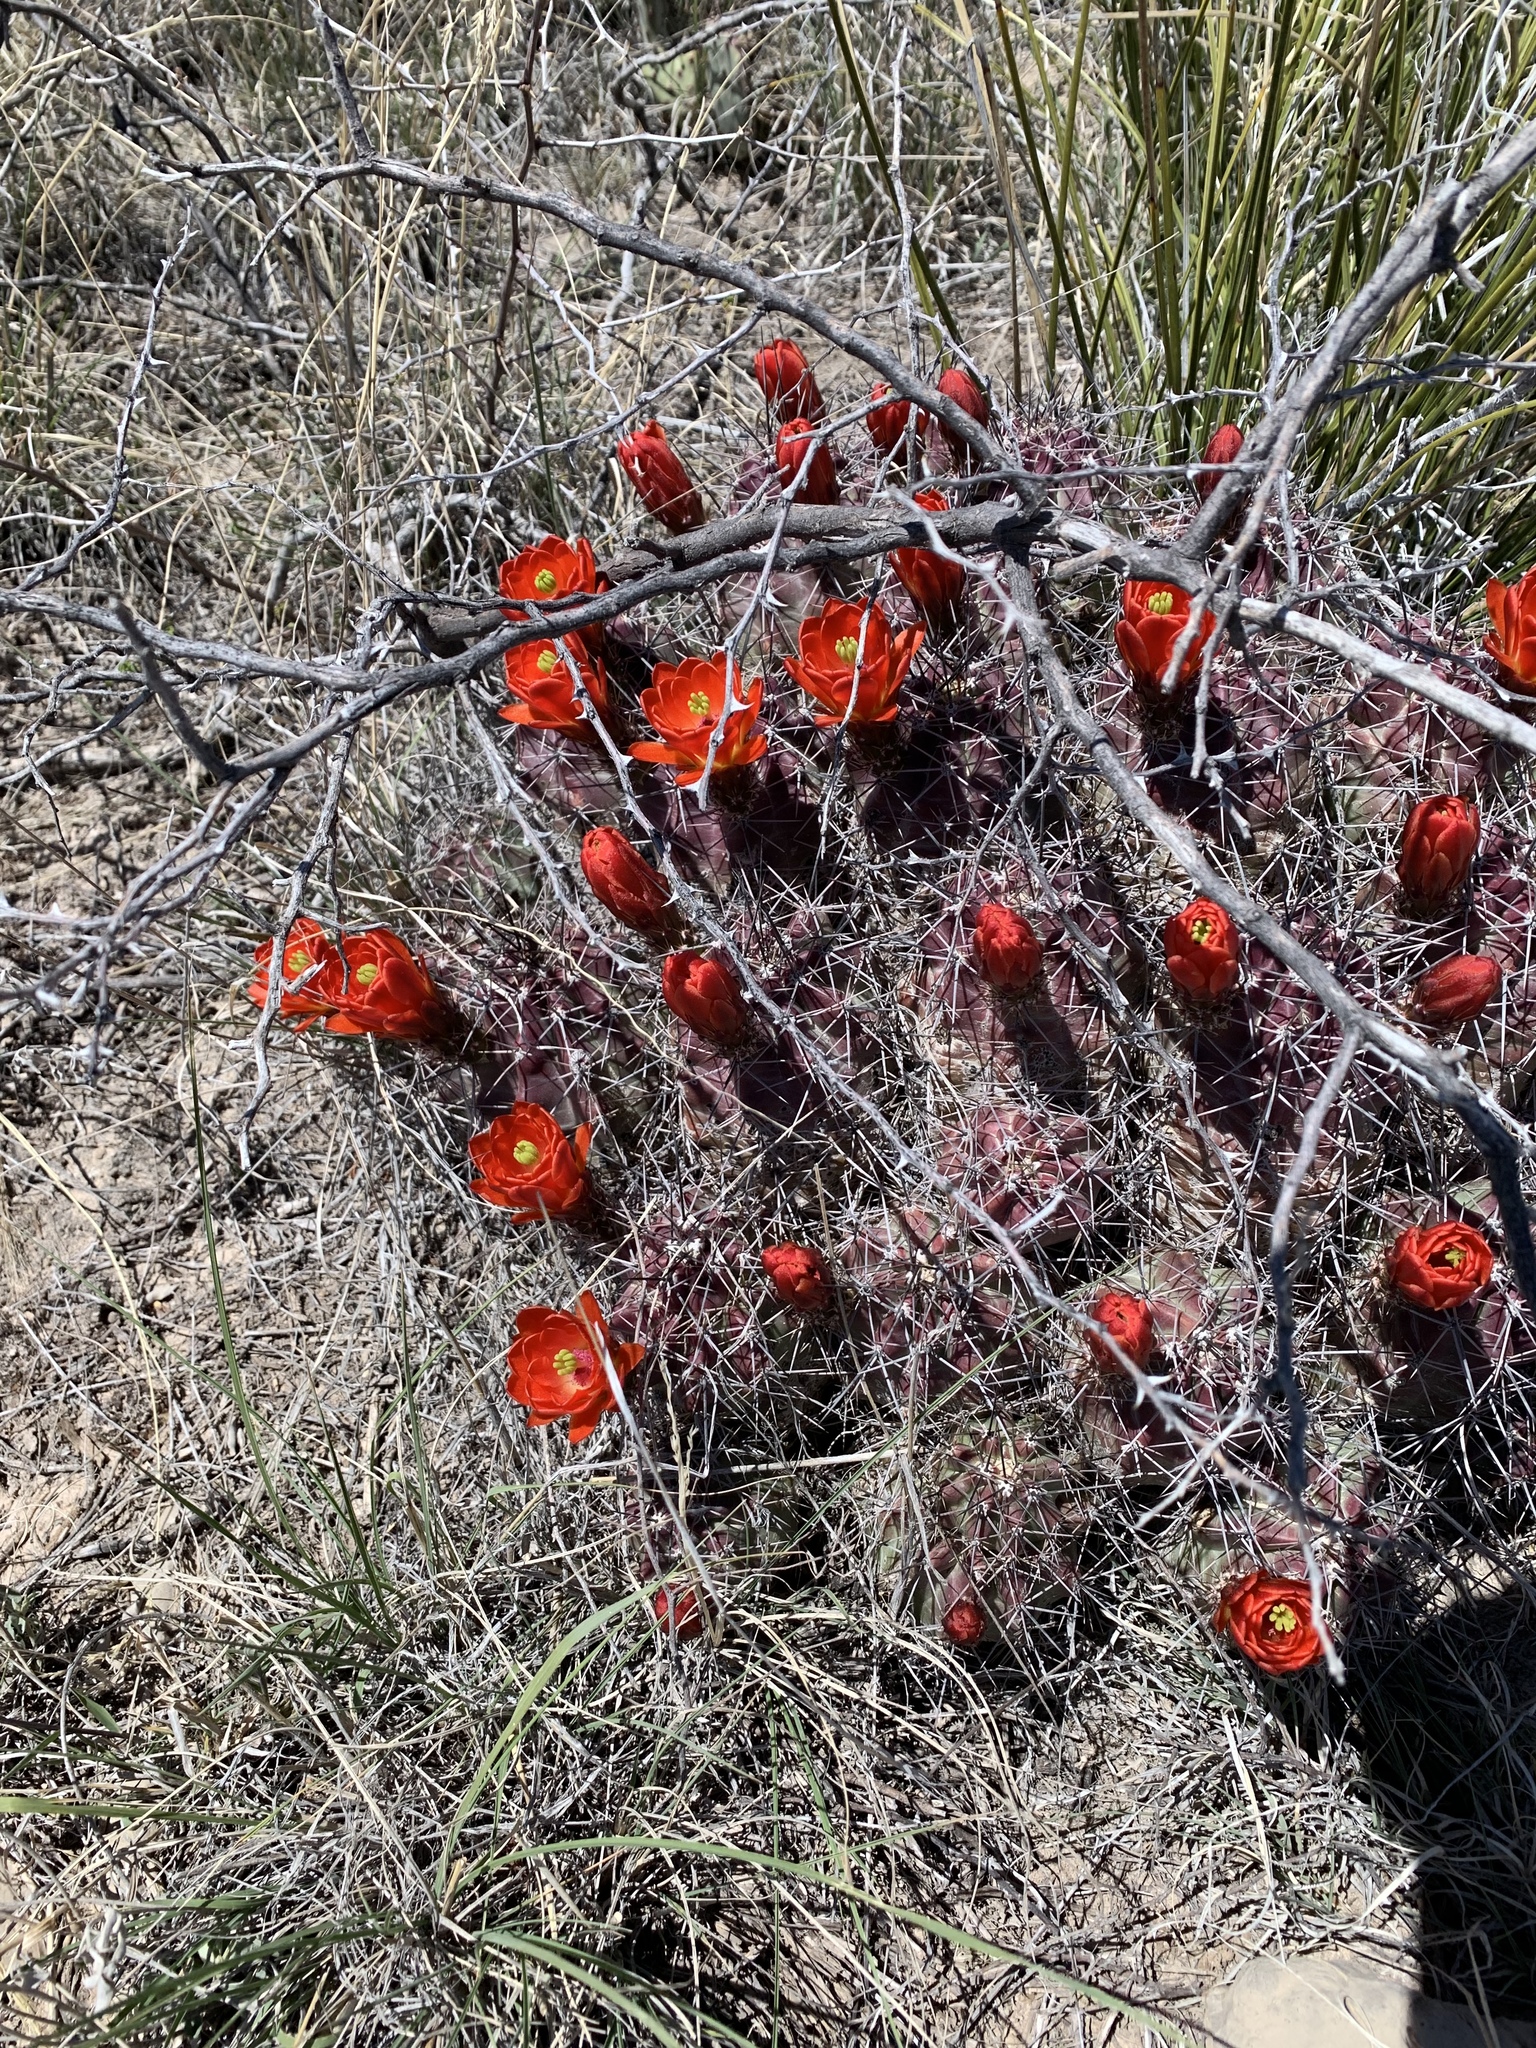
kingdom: Plantae
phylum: Tracheophyta
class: Magnoliopsida
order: Caryophyllales
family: Cactaceae
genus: Echinocereus
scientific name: Echinocereus coccineus
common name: Scarlet hedgehog cactus
